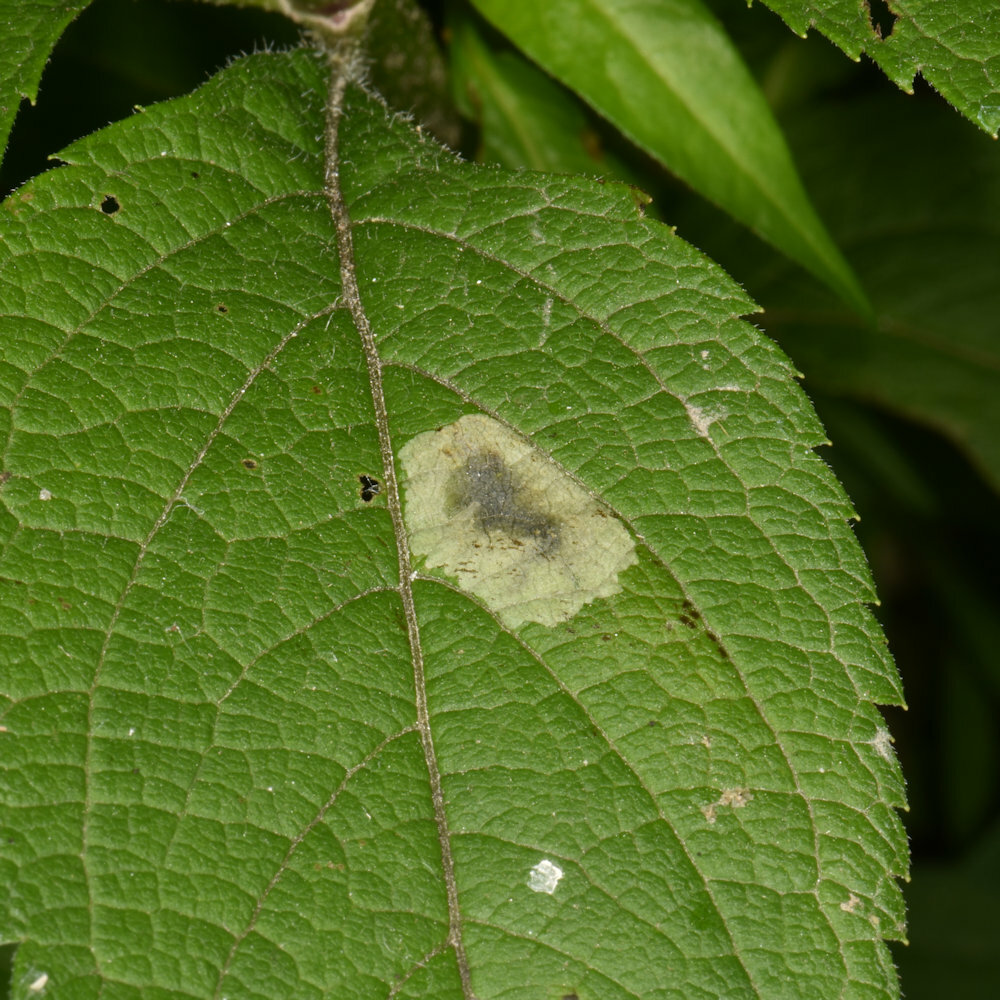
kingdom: Animalia
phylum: Arthropoda
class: Insecta
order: Diptera
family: Agromyzidae
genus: Calycomyza
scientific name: Calycomyza flavinotum
